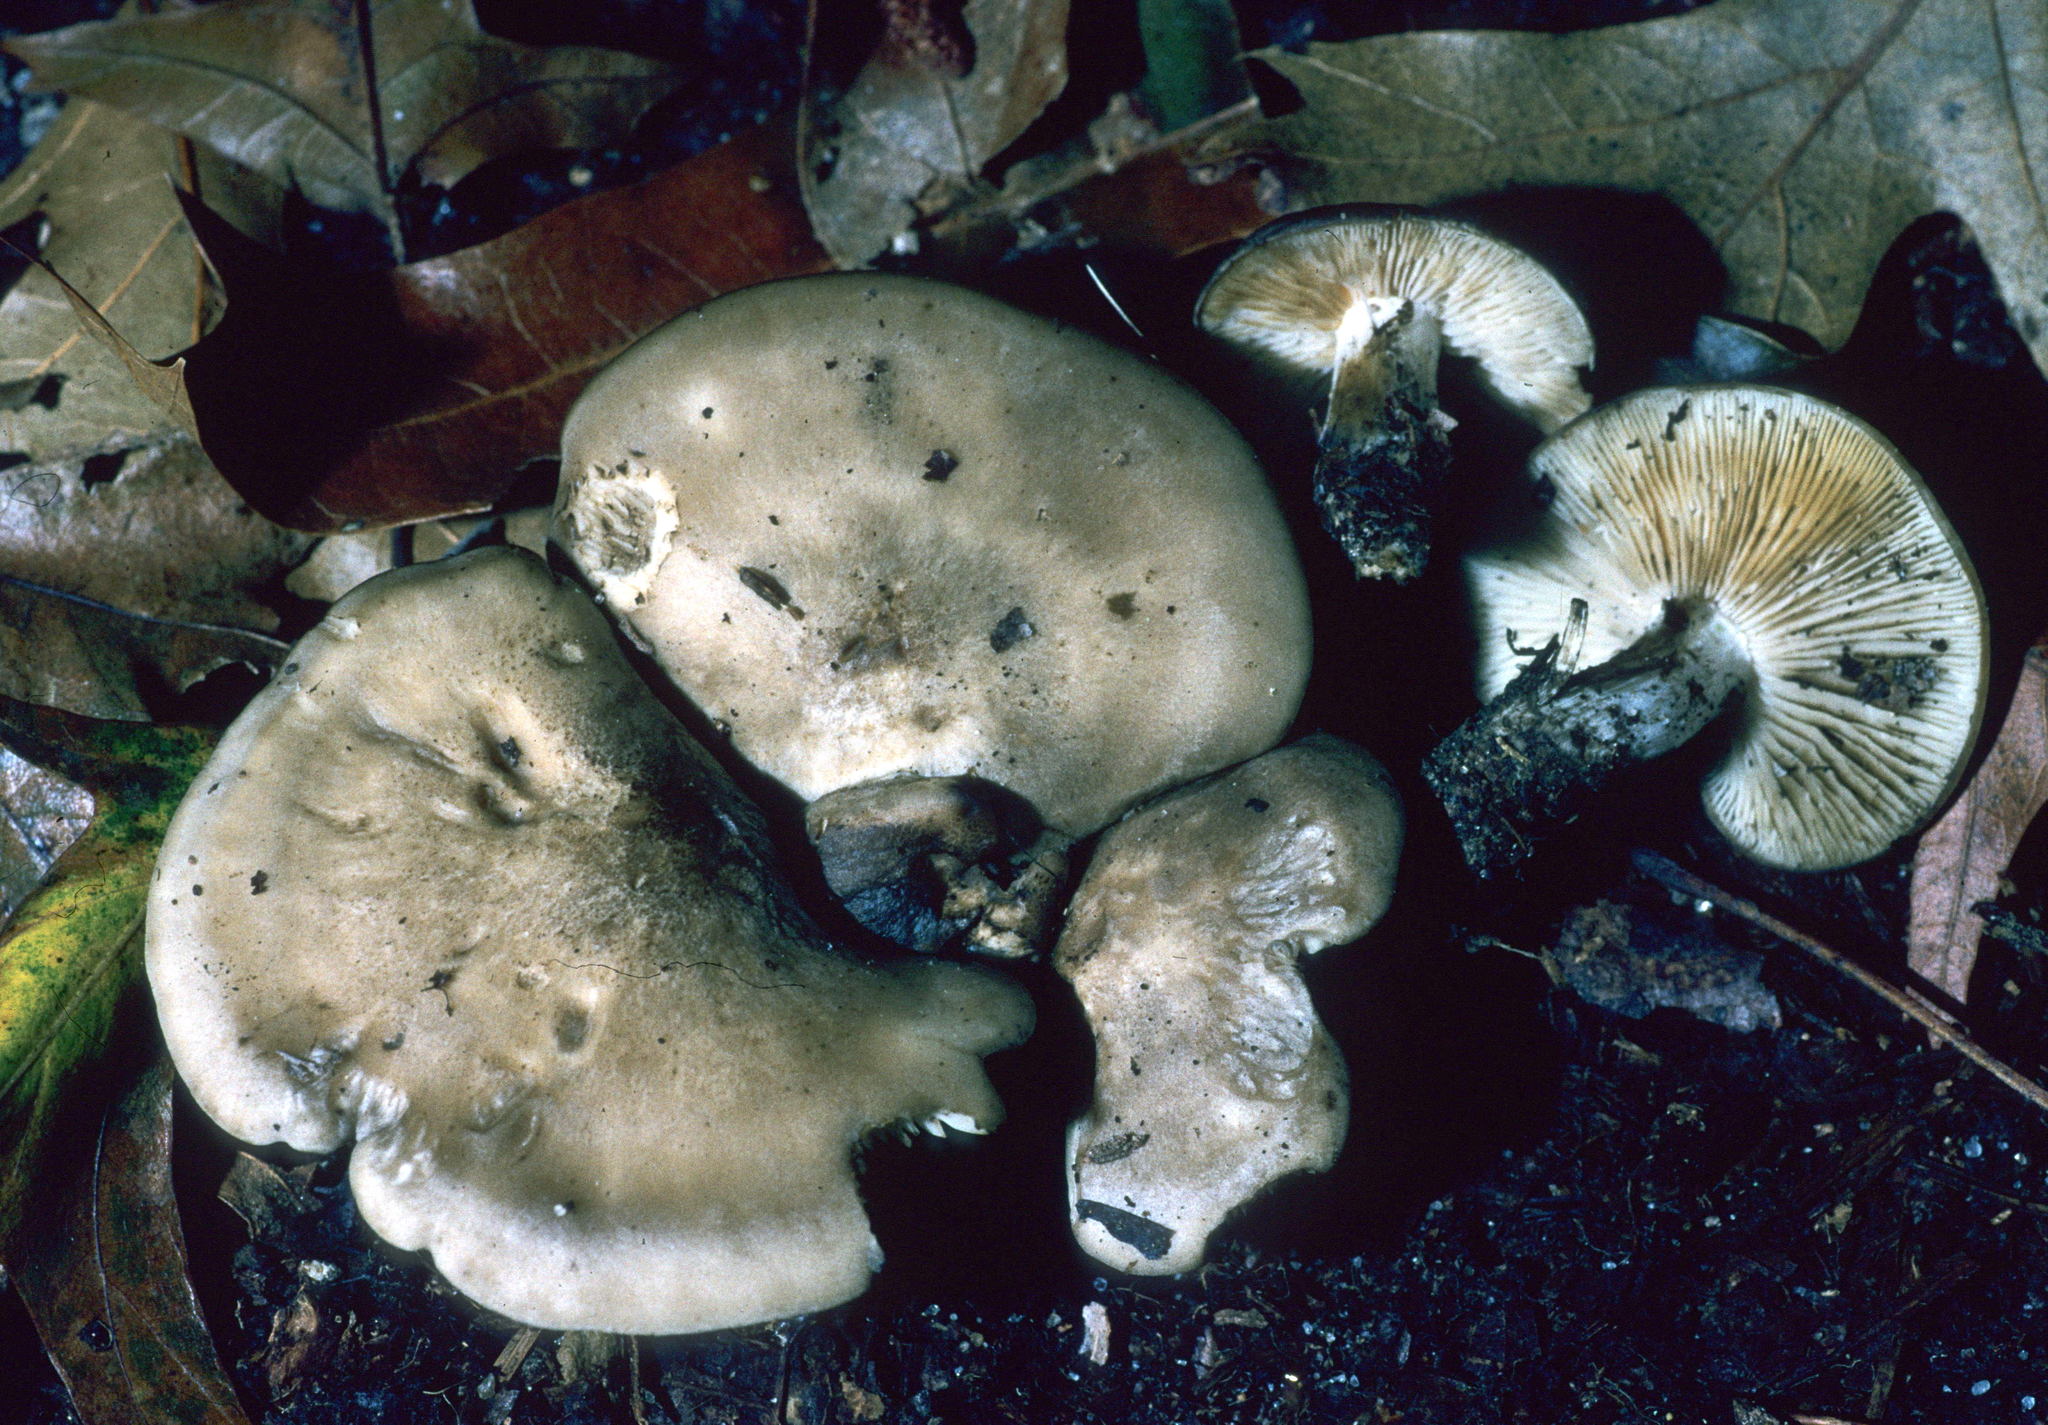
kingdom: Fungi
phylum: Basidiomycota
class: Agaricomycetes
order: Agaricales
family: Lyophyllaceae
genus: Lyophyllum
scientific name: Lyophyllum fuligineum
